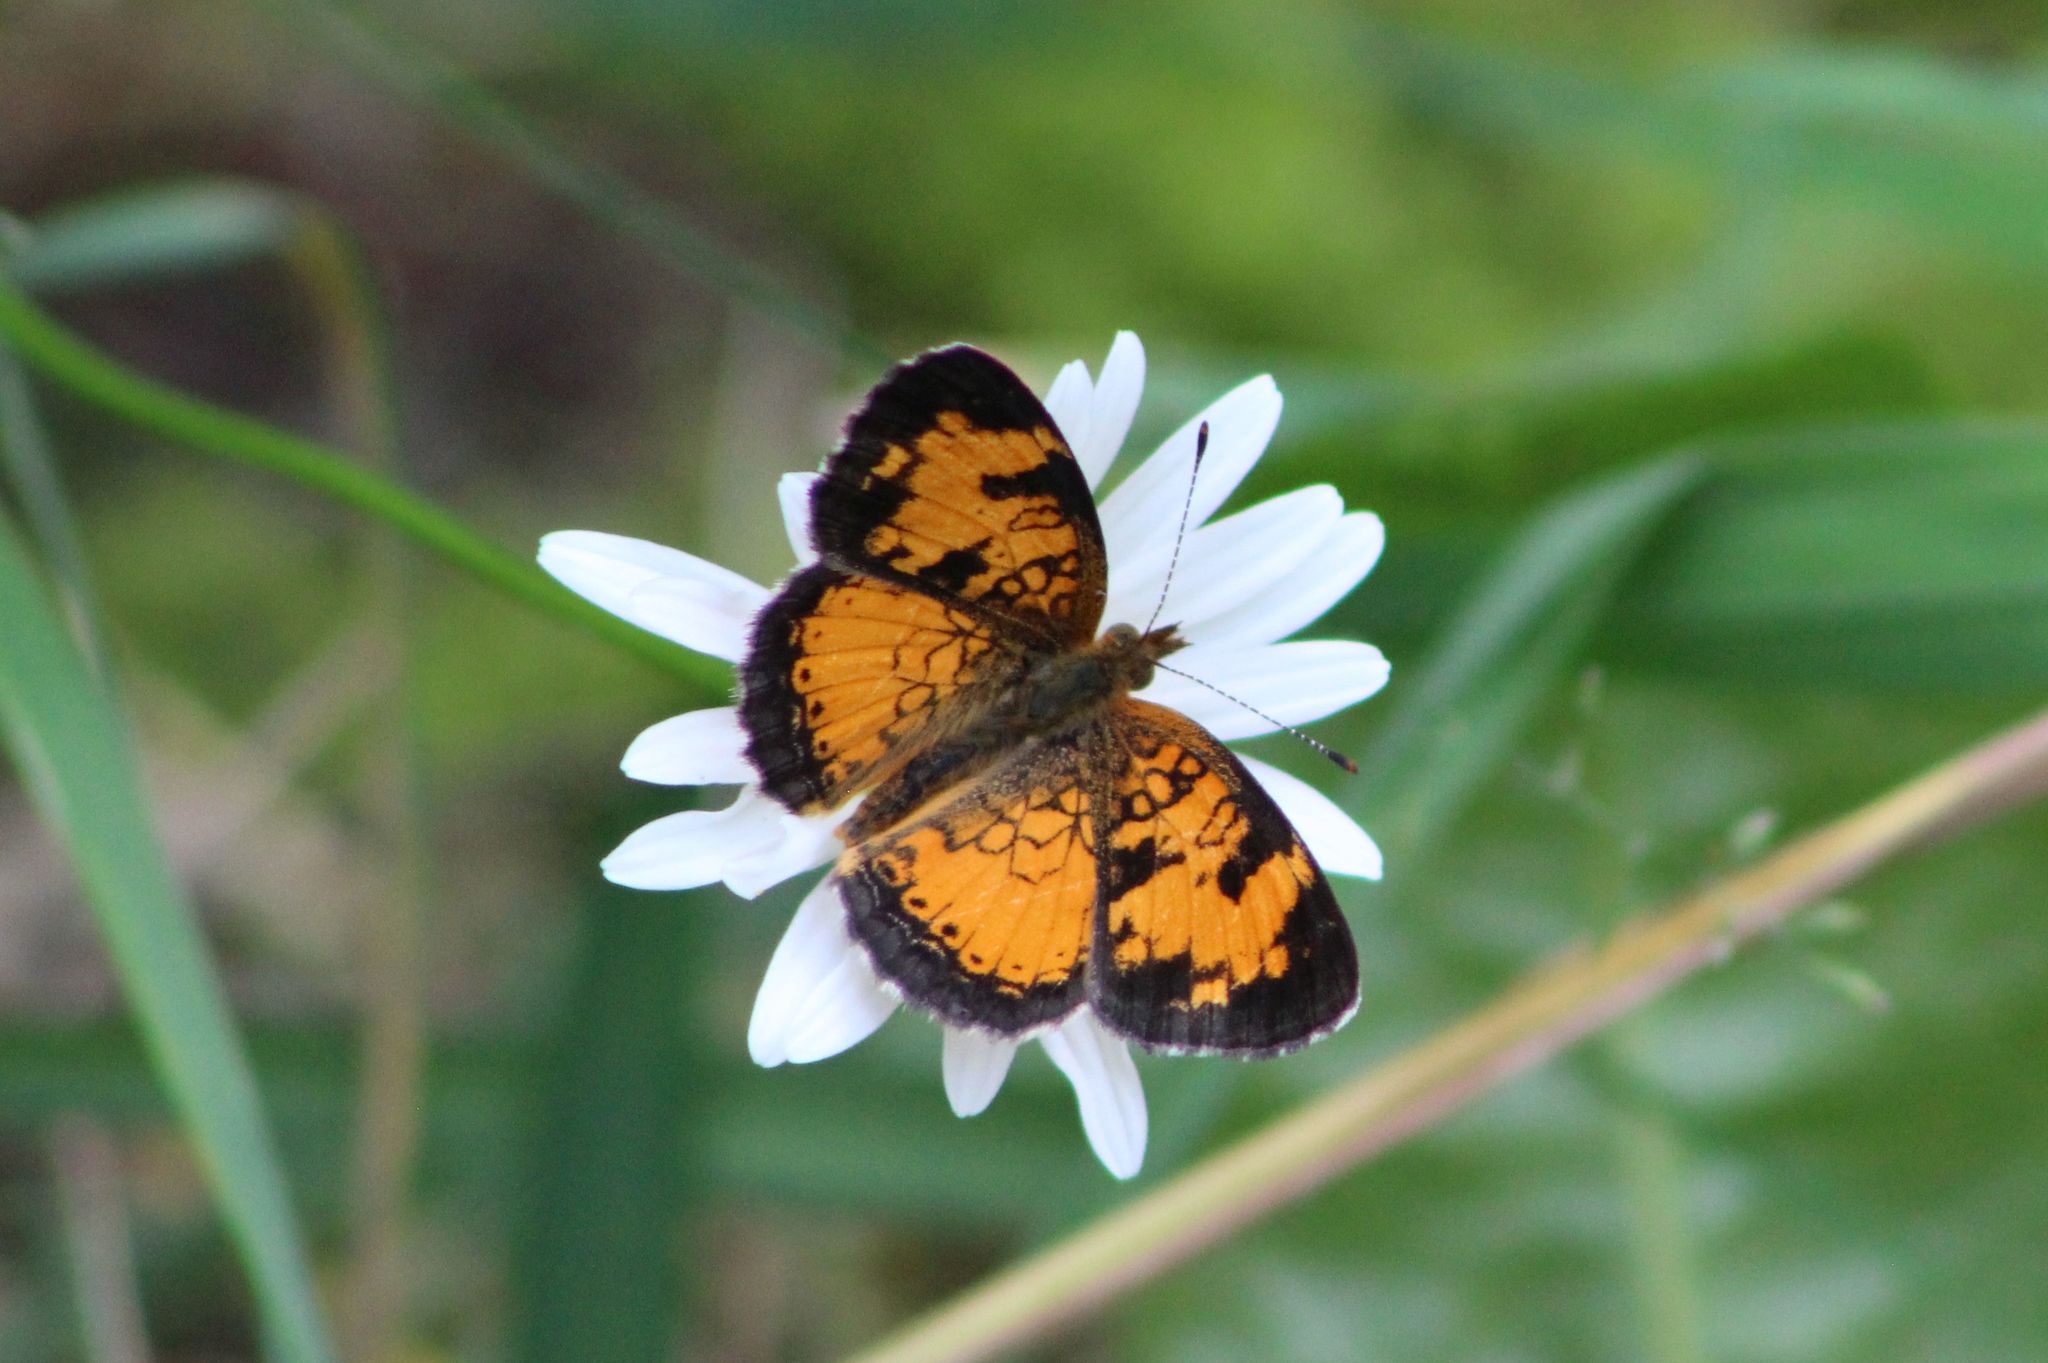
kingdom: Animalia
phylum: Arthropoda
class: Insecta
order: Lepidoptera
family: Nymphalidae
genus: Phyciodes
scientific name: Phyciodes tharos
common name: Pearl crescent
